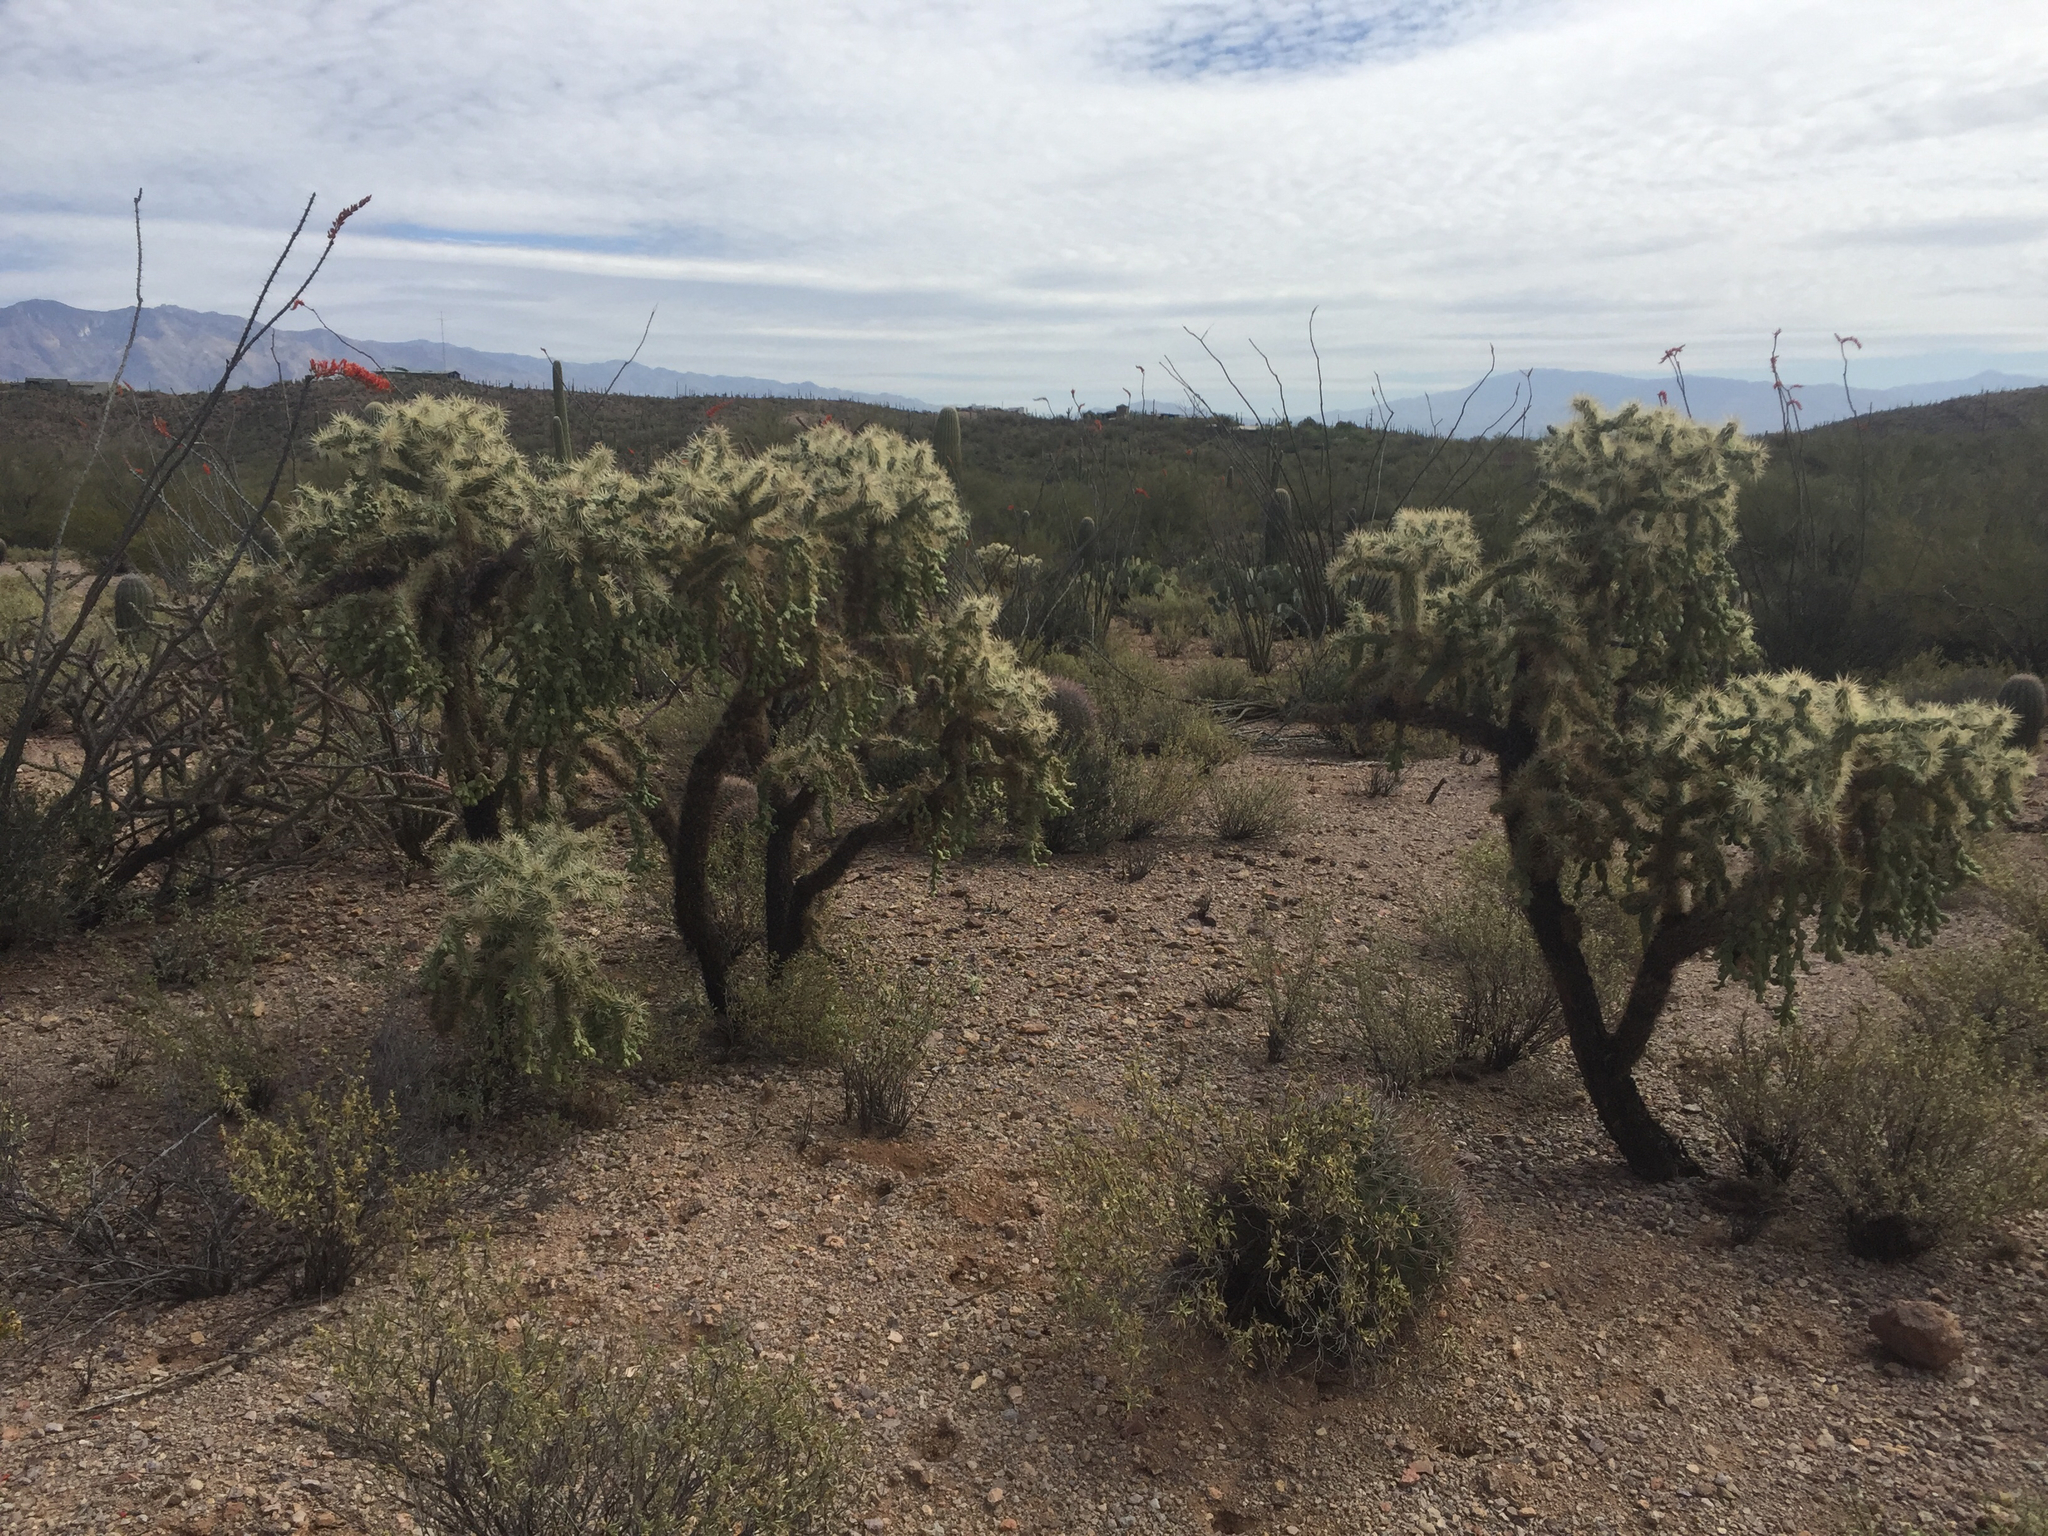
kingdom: Plantae
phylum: Tracheophyta
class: Magnoliopsida
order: Caryophyllales
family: Cactaceae
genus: Cylindropuntia
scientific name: Cylindropuntia fulgida
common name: Jumping cholla
